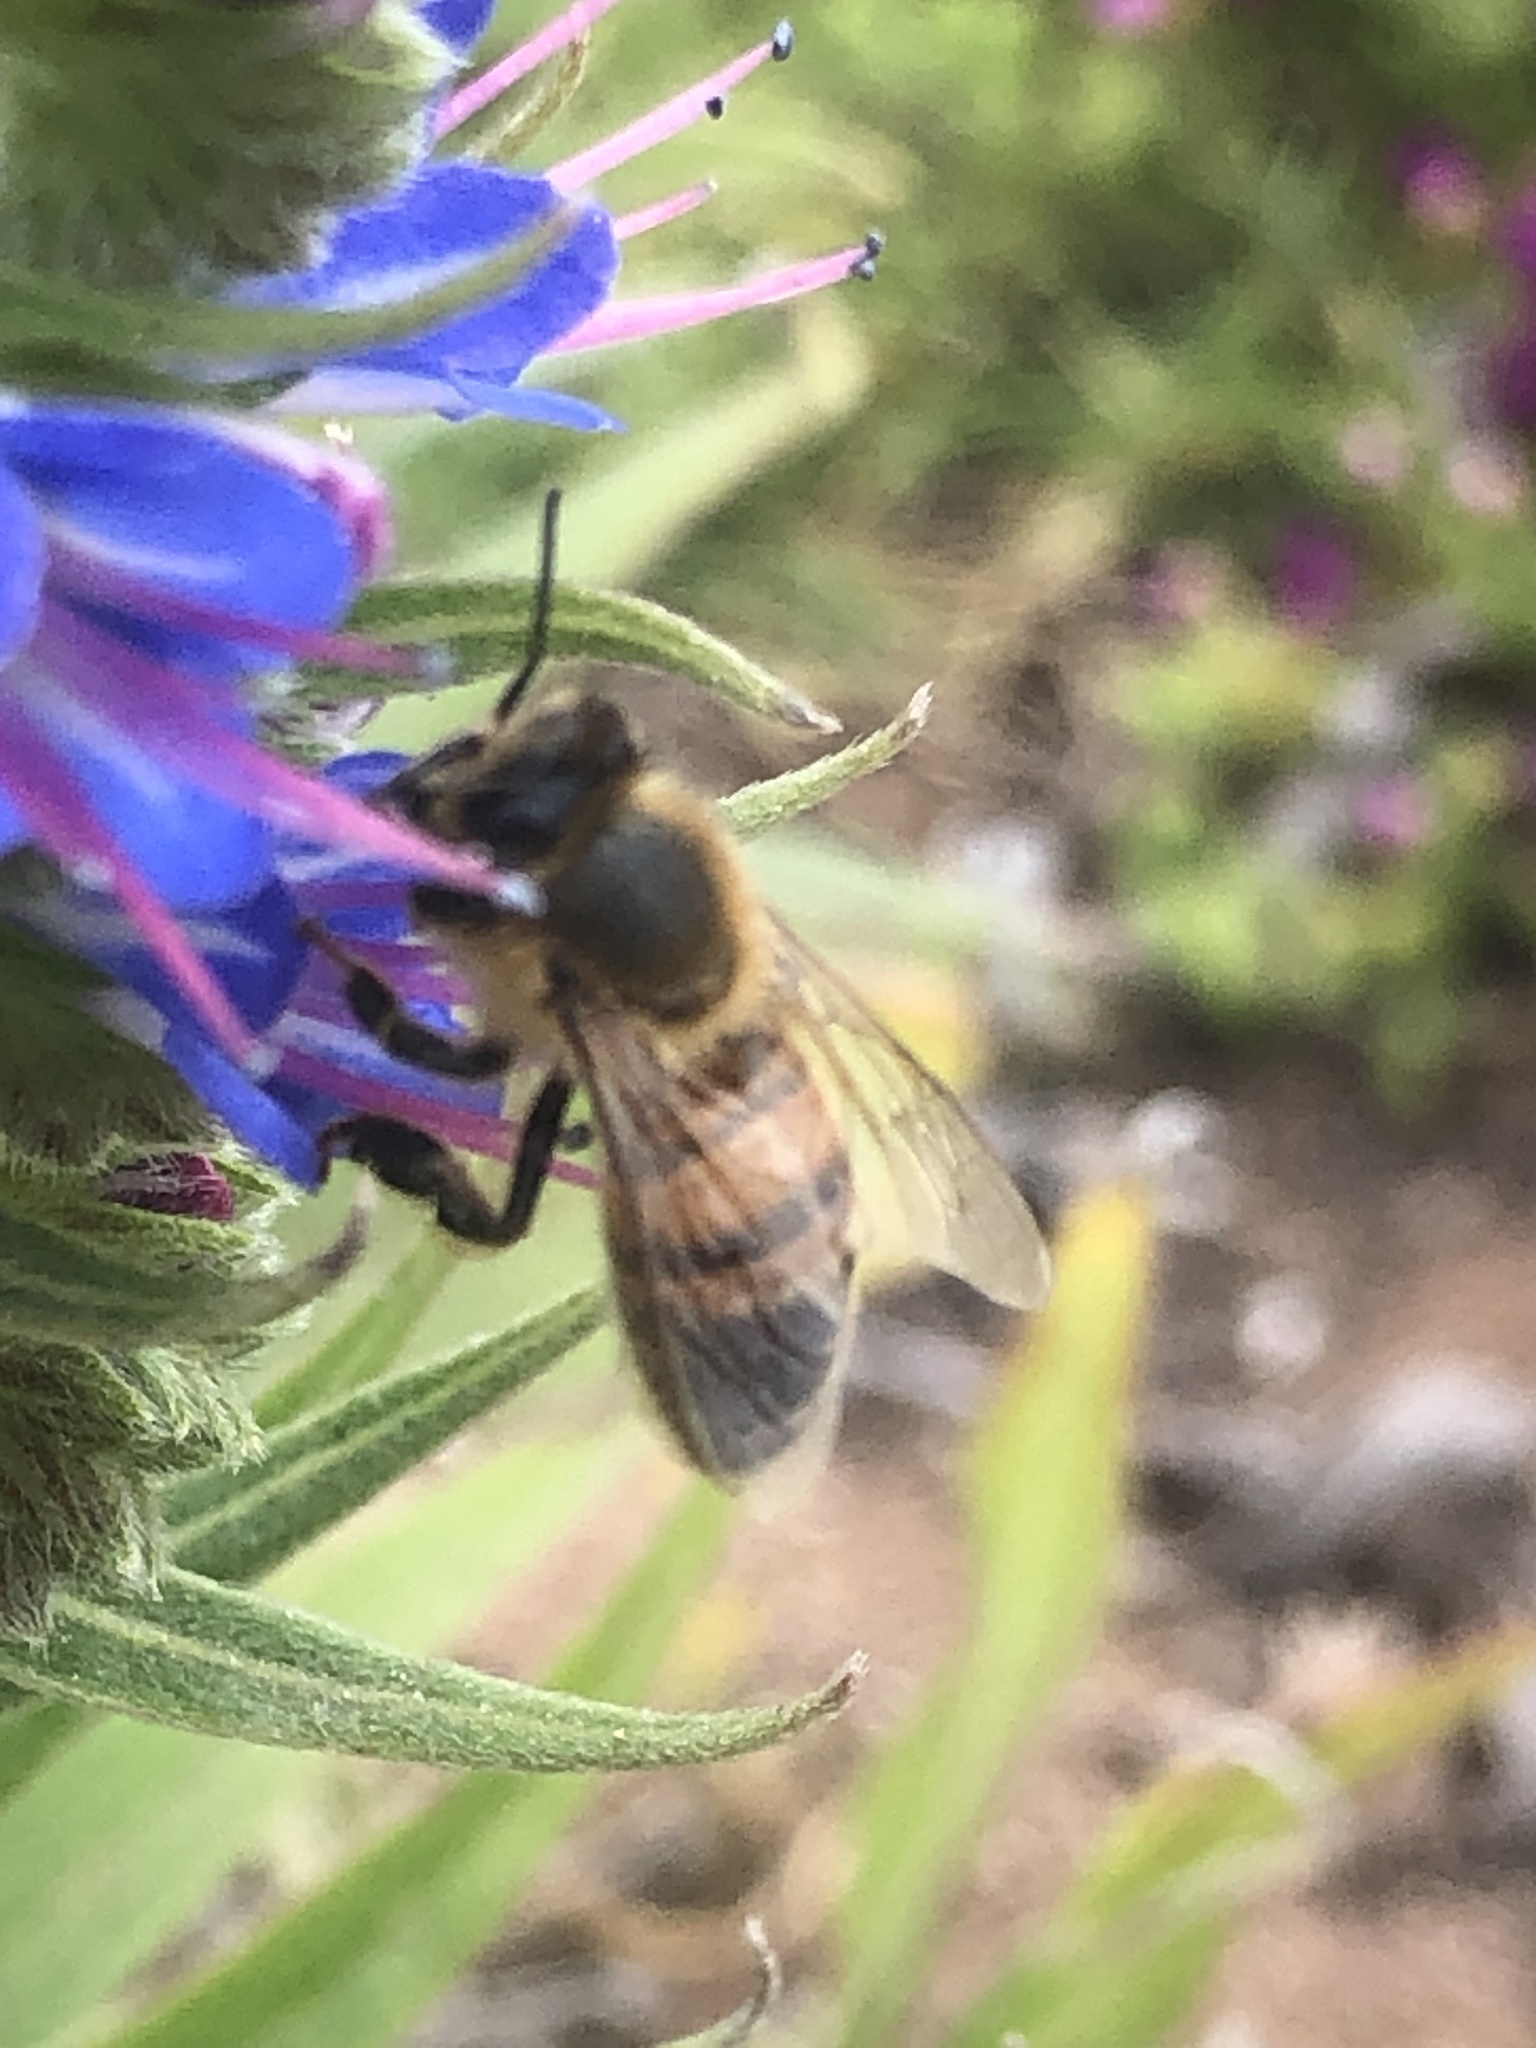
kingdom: Animalia
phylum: Arthropoda
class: Insecta
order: Hymenoptera
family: Apidae
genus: Apis
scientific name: Apis mellifera
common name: Honey bee
